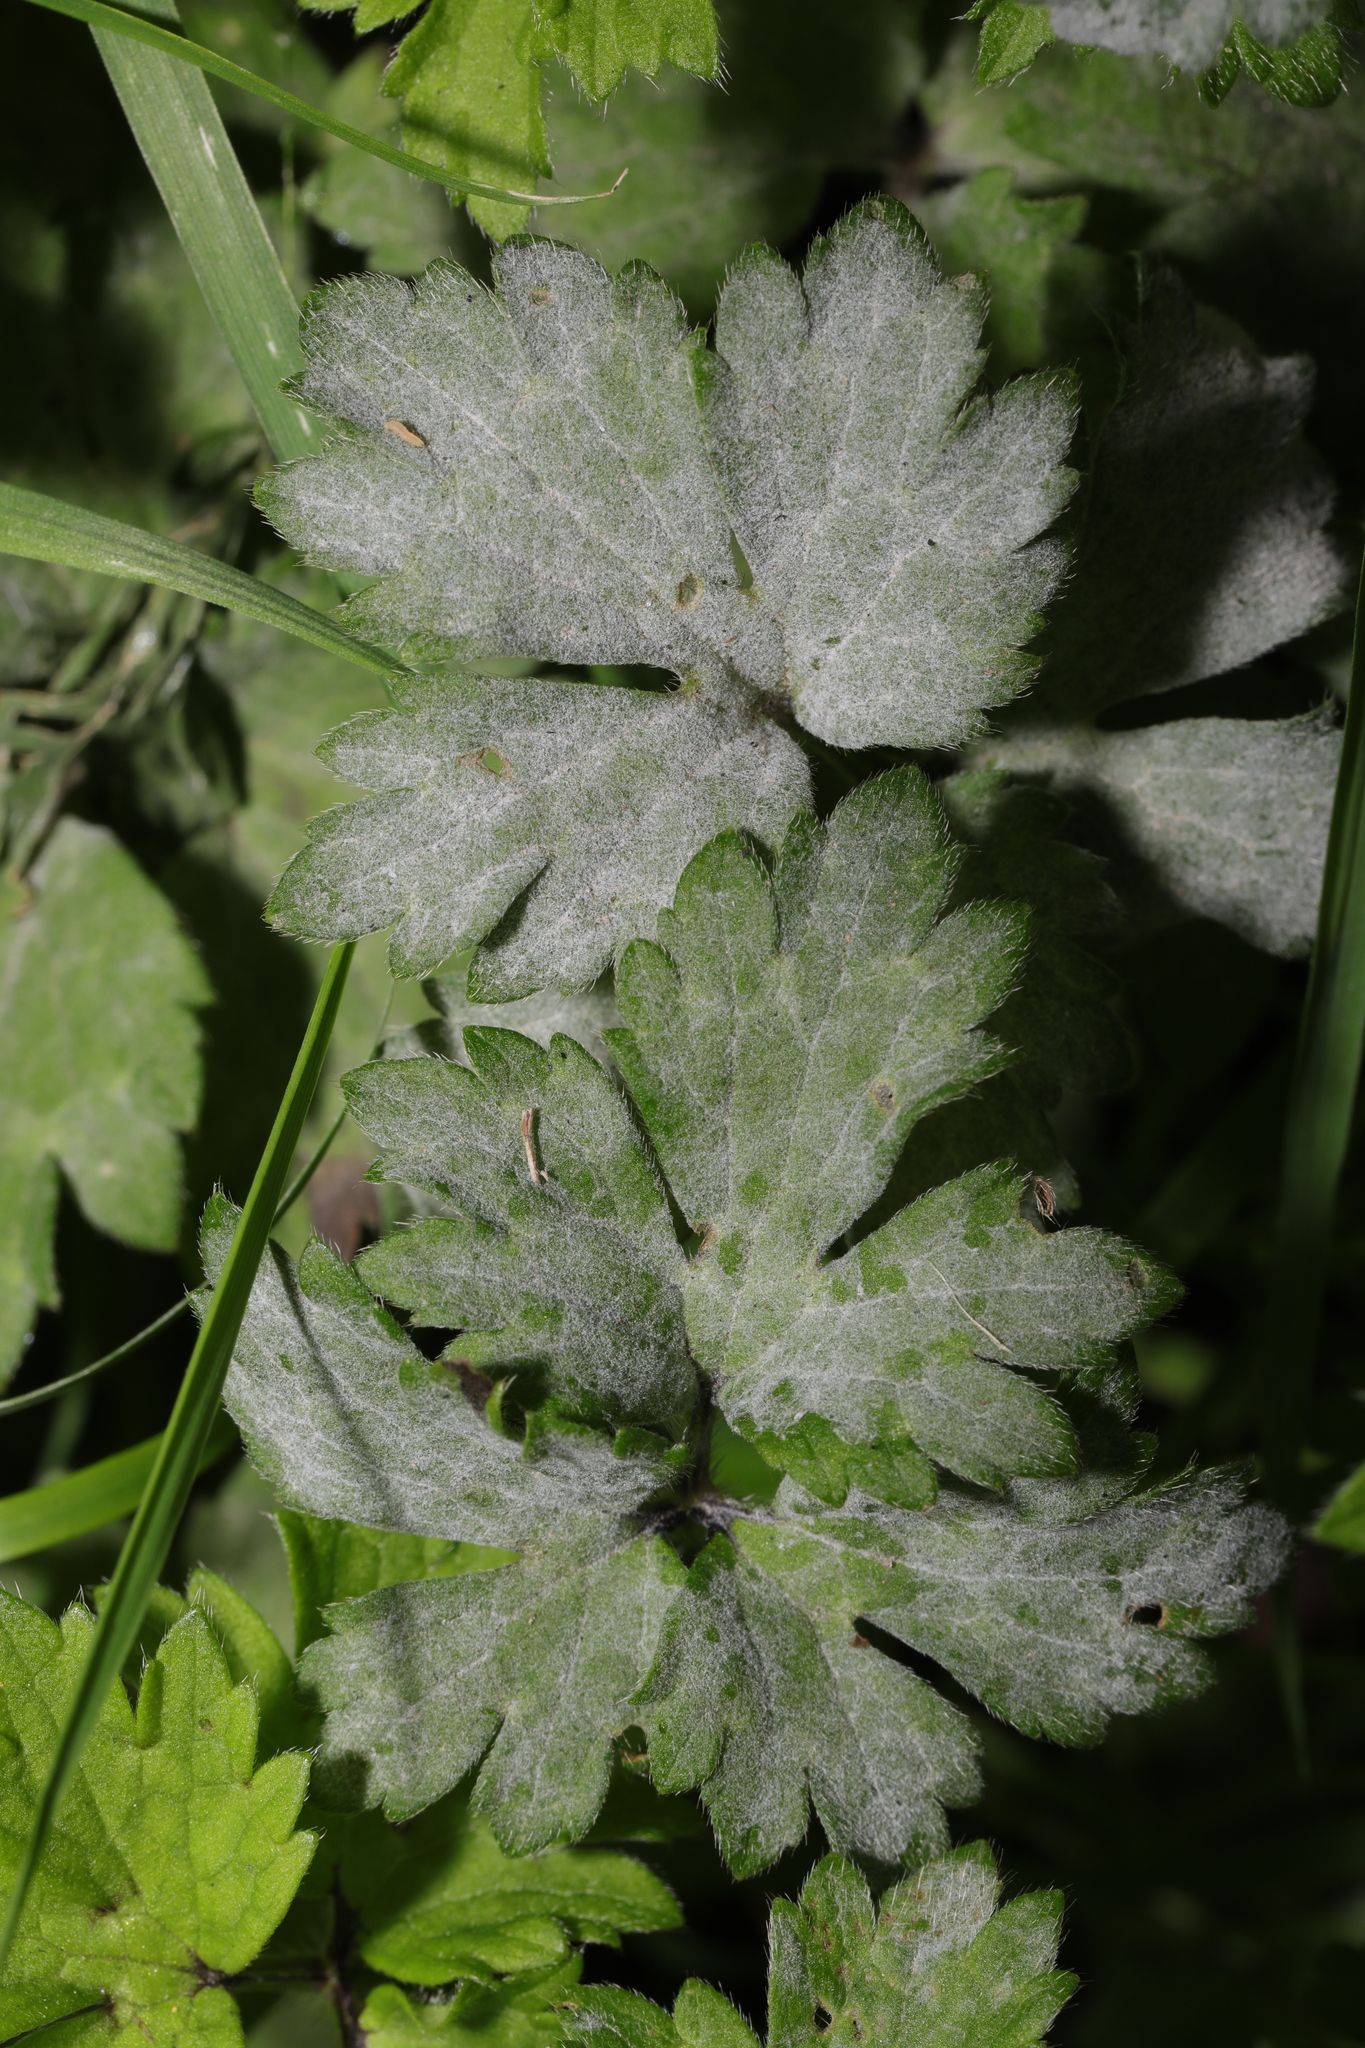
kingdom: Plantae
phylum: Tracheophyta
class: Magnoliopsida
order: Ranunculales
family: Ranunculaceae
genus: Ranunculus
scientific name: Ranunculus repens
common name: Creeping buttercup
